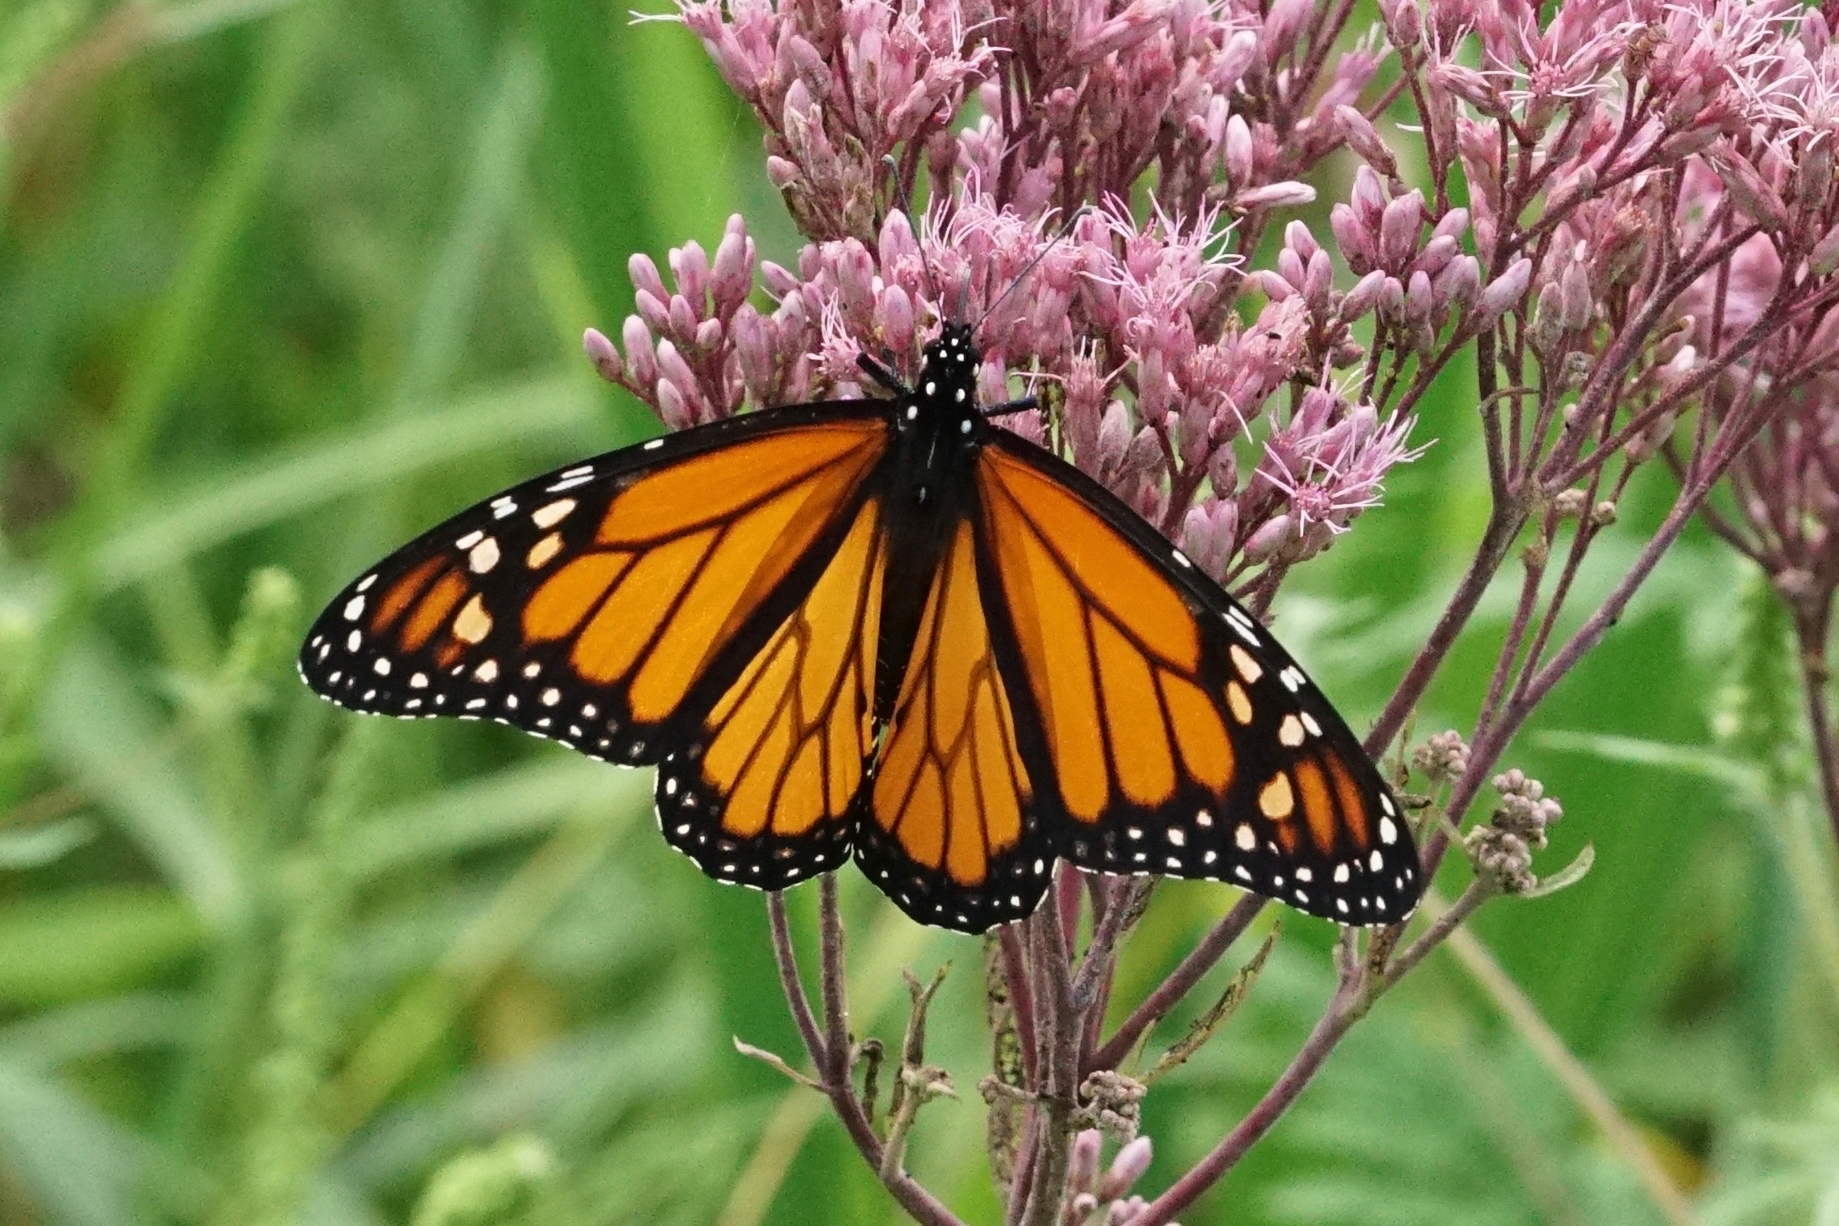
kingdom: Animalia
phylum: Arthropoda
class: Insecta
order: Lepidoptera
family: Nymphalidae
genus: Danaus
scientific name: Danaus plexippus
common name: Monarch
